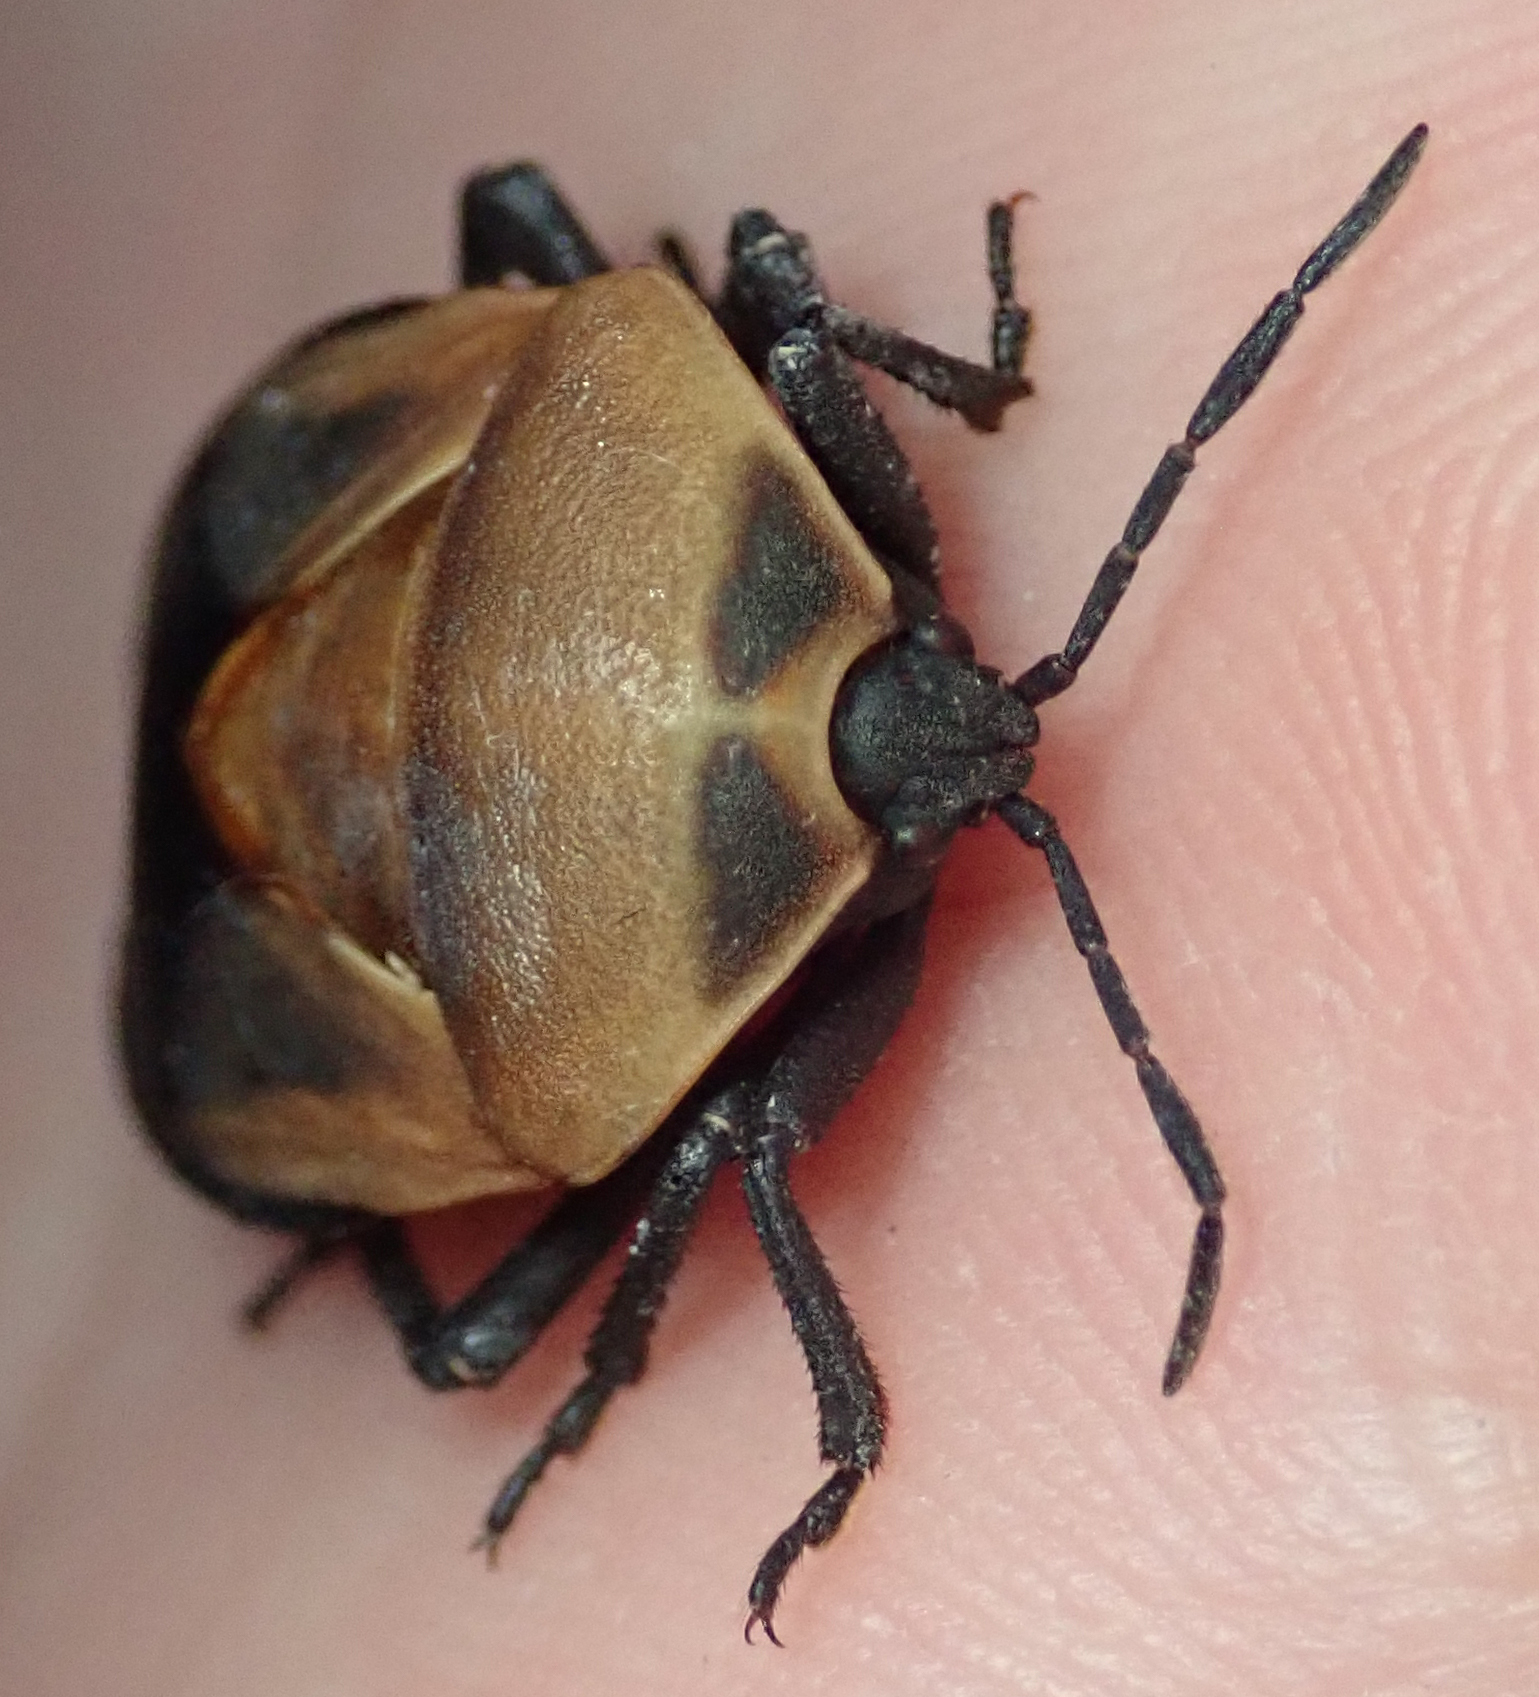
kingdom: Animalia
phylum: Arthropoda
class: Insecta
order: Hemiptera
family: Dinidoridae
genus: Coridius
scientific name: Coridius viduatus
